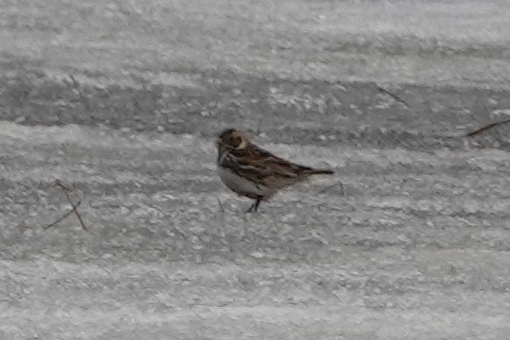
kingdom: Animalia
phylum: Chordata
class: Aves
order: Passeriformes
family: Calcariidae
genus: Calcarius
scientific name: Calcarius lapponicus
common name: Lapland longspur
